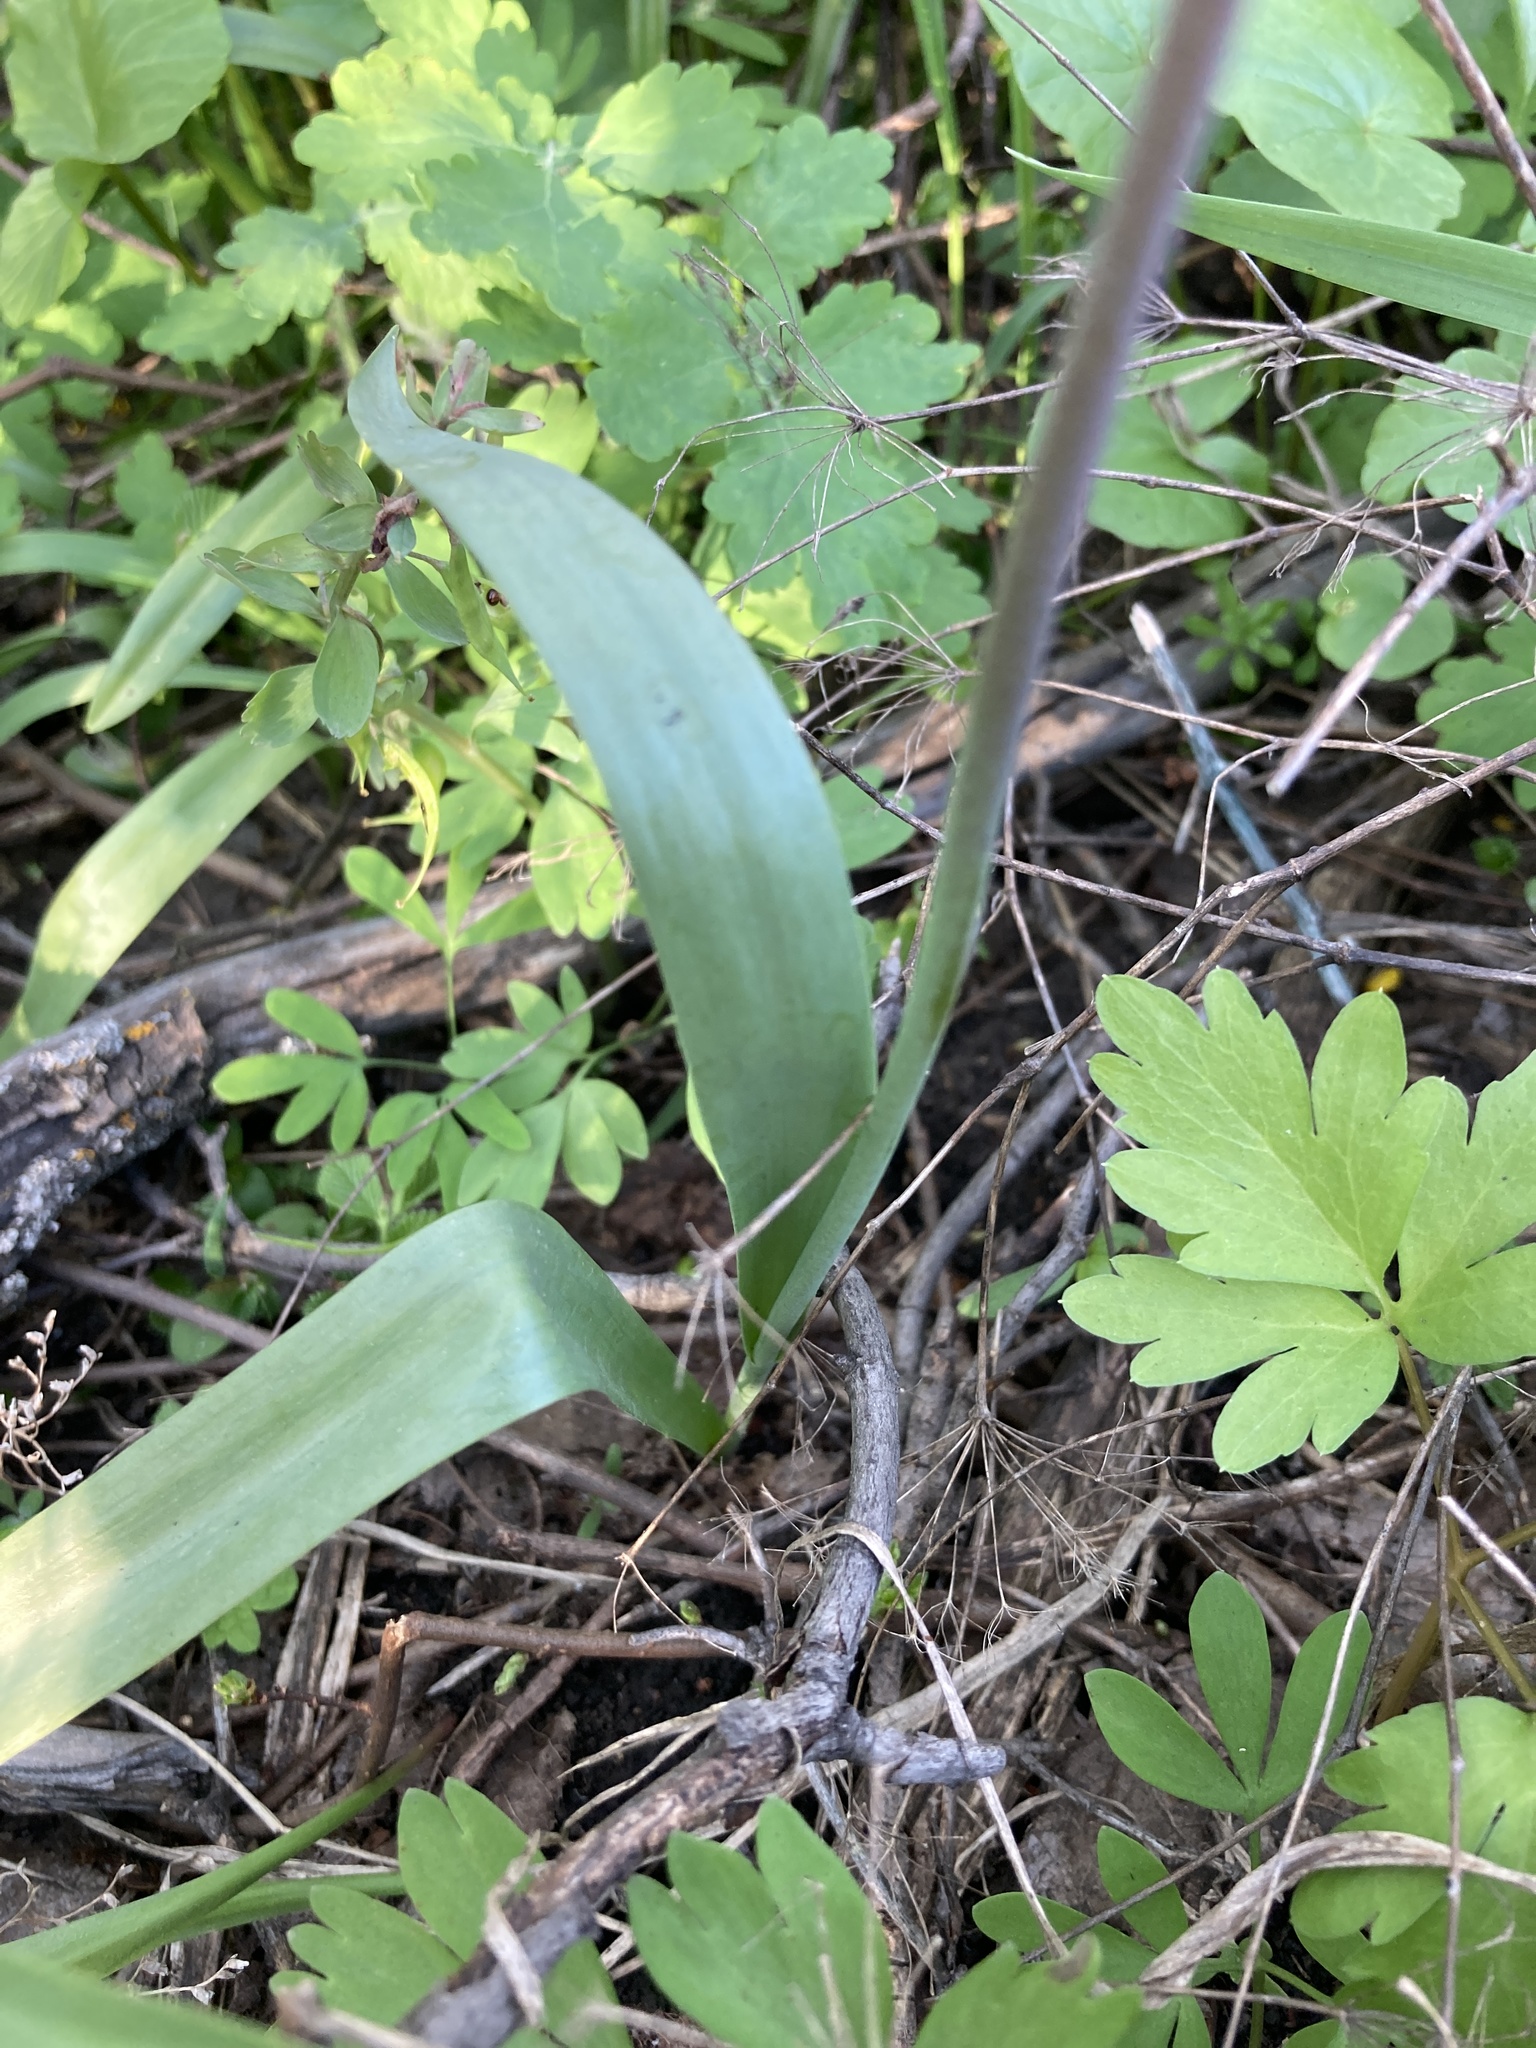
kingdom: Plantae
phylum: Tracheophyta
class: Liliopsida
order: Liliales
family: Liliaceae
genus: Tulipa
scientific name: Tulipa sylvestris
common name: Wild tulip
